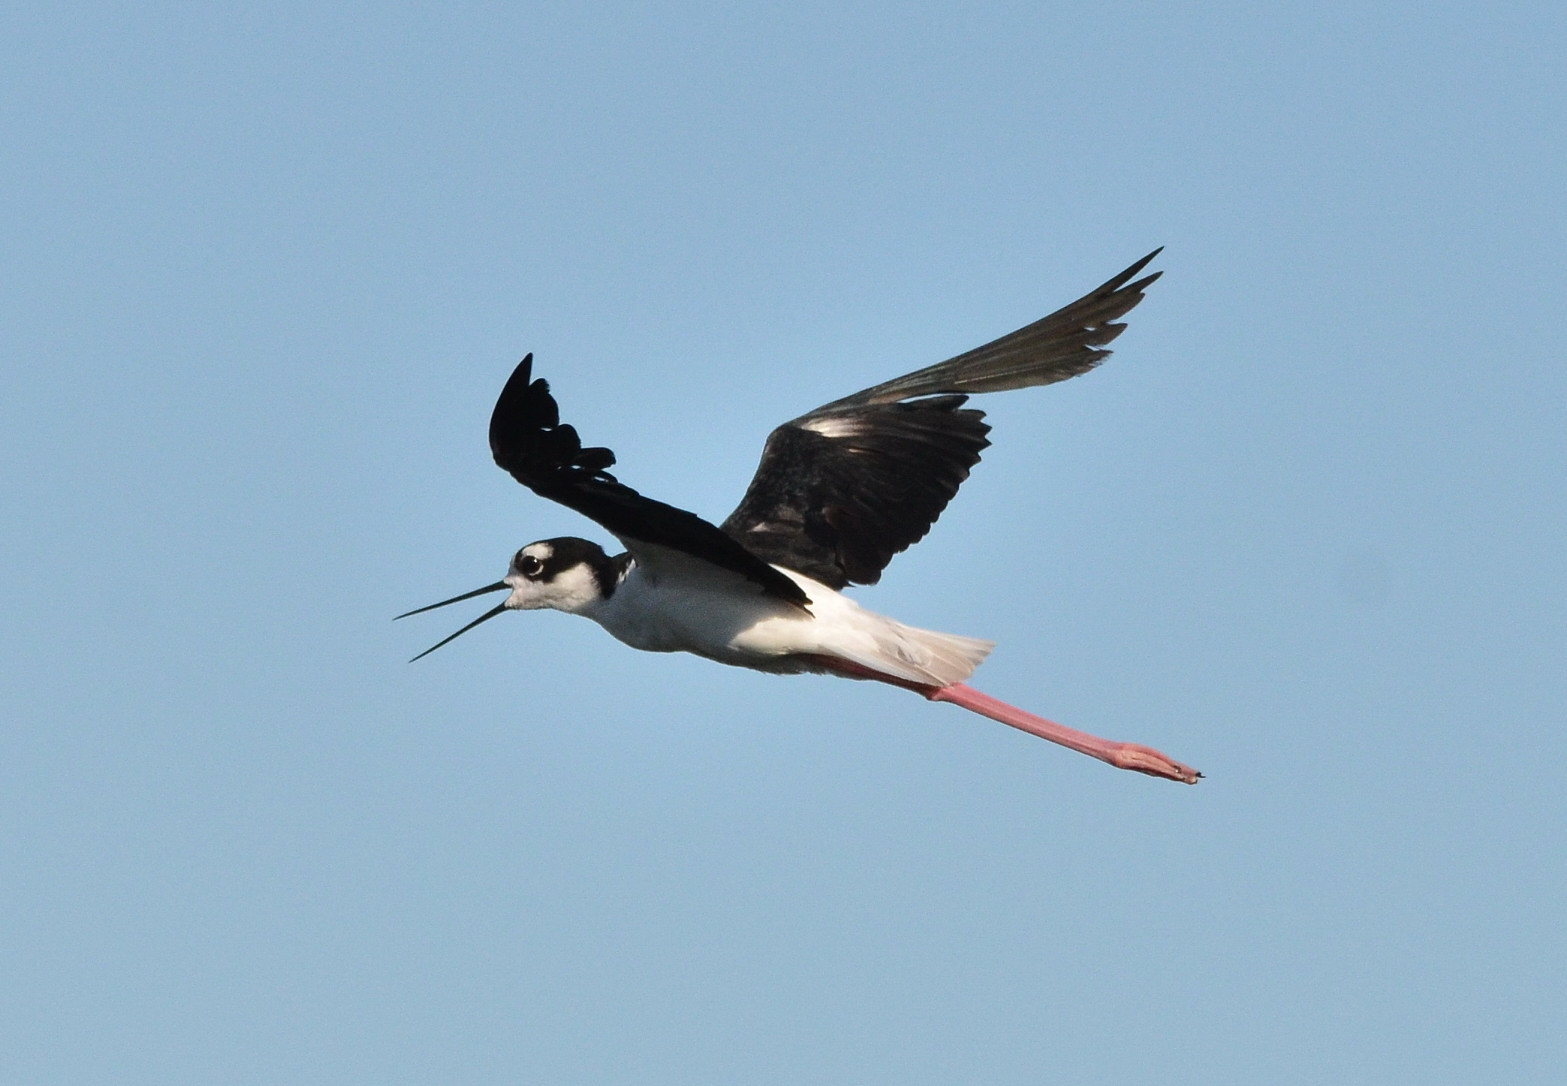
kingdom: Animalia
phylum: Chordata
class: Aves
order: Charadriiformes
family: Recurvirostridae
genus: Himantopus
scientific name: Himantopus mexicanus
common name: Black-necked stilt
